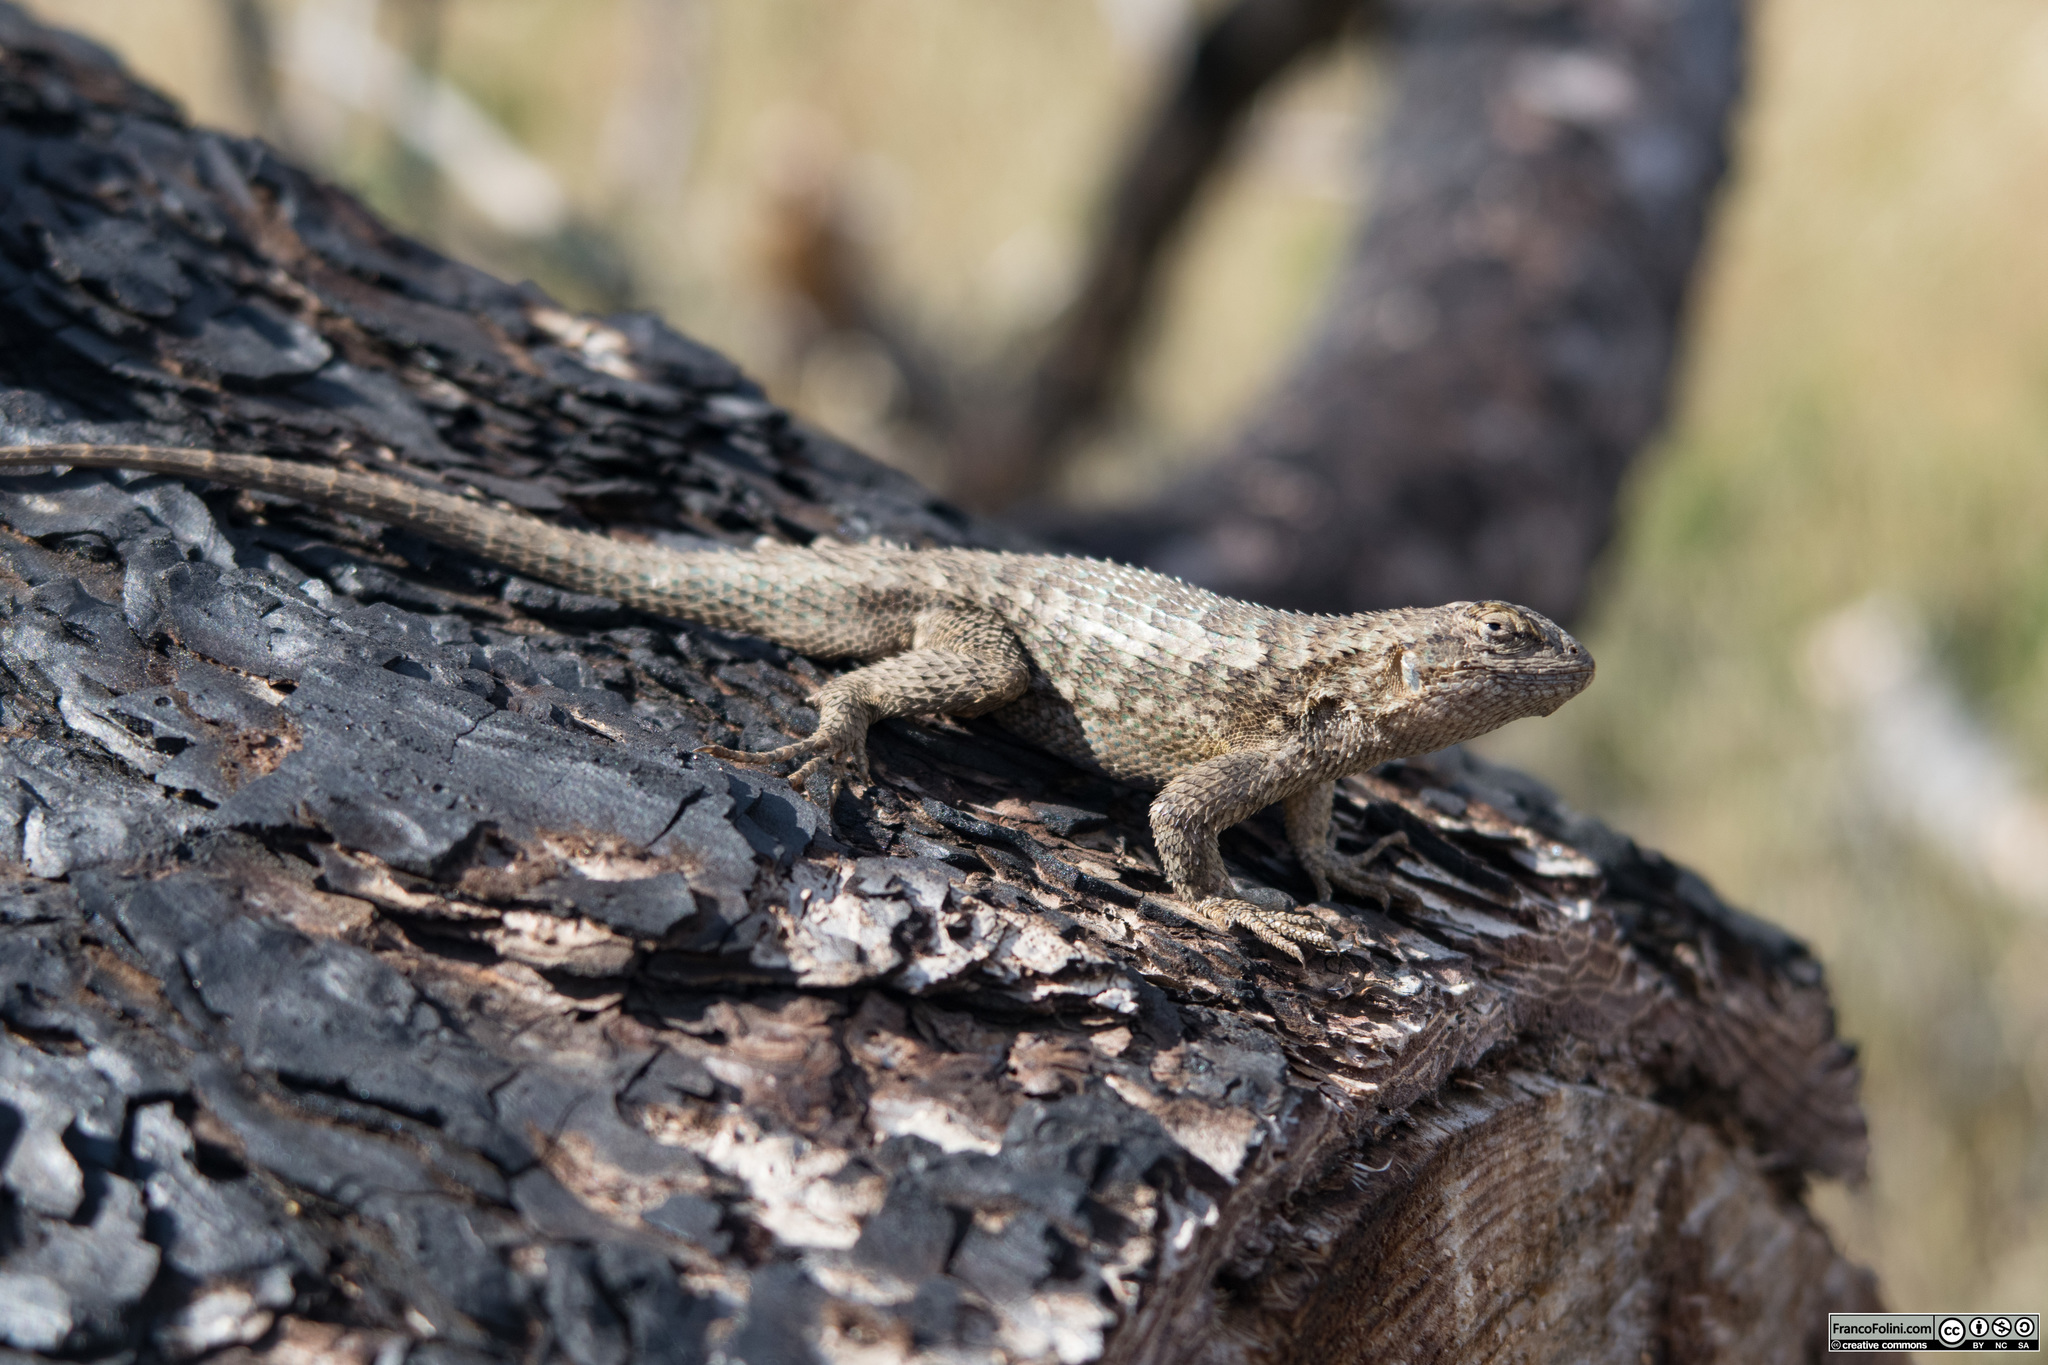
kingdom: Animalia
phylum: Chordata
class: Squamata
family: Phrynosomatidae
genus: Sceloporus
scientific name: Sceloporus occidentalis
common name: Western fence lizard
